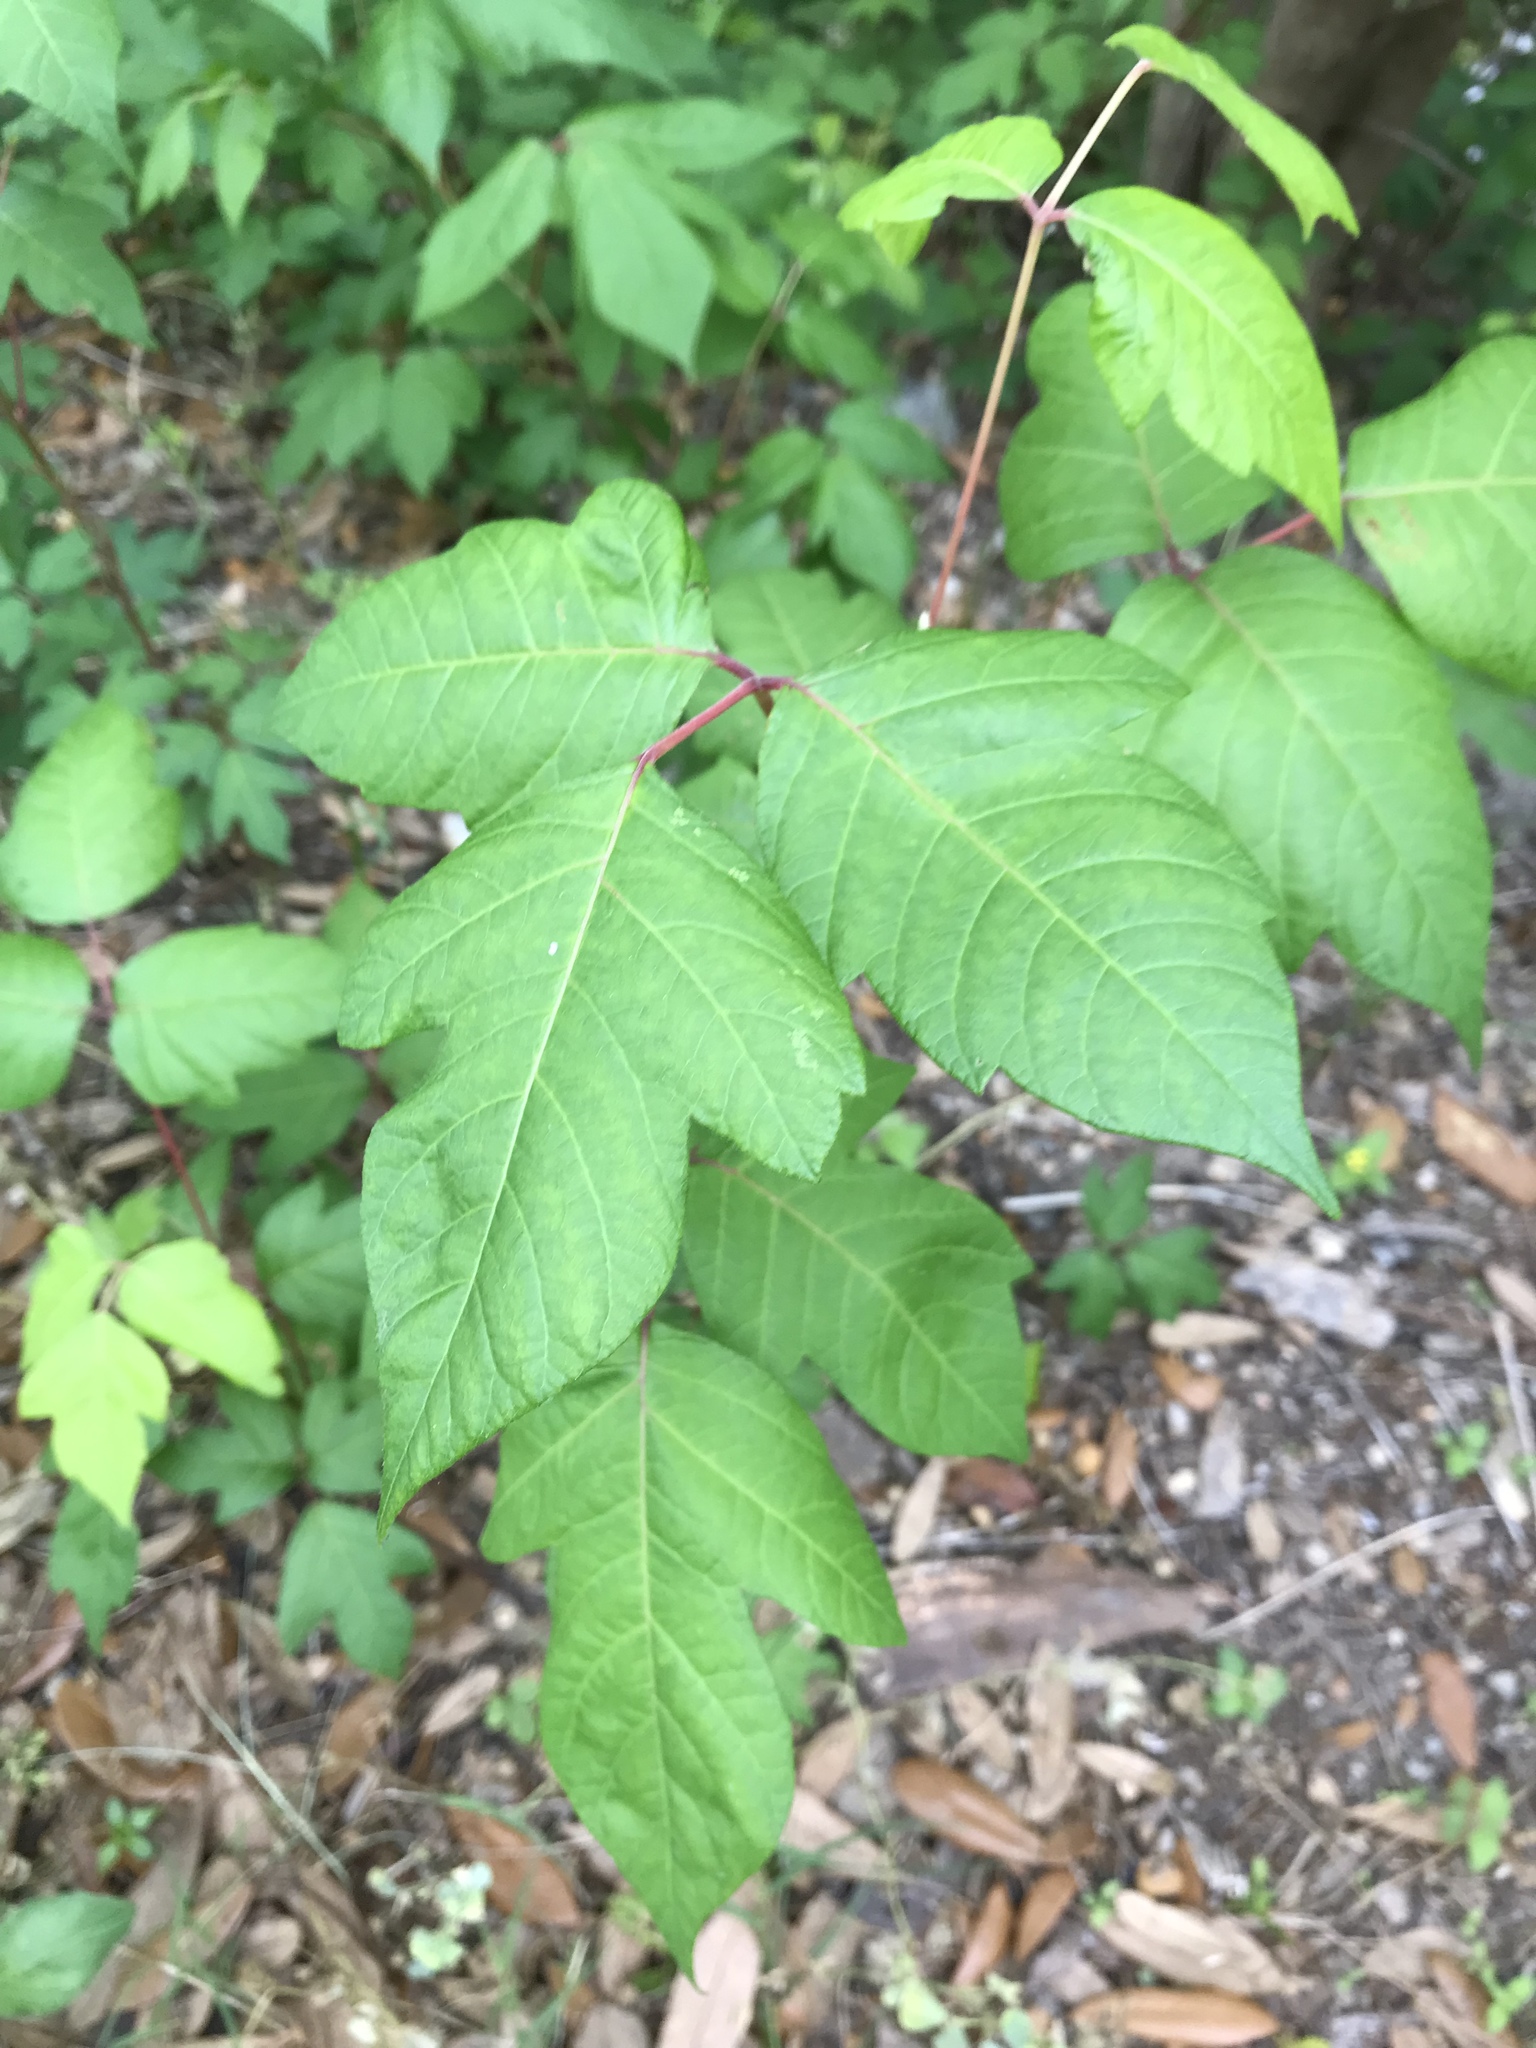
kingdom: Plantae
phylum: Tracheophyta
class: Magnoliopsida
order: Sapindales
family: Anacardiaceae
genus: Toxicodendron
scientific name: Toxicodendron radicans
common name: Poison ivy
